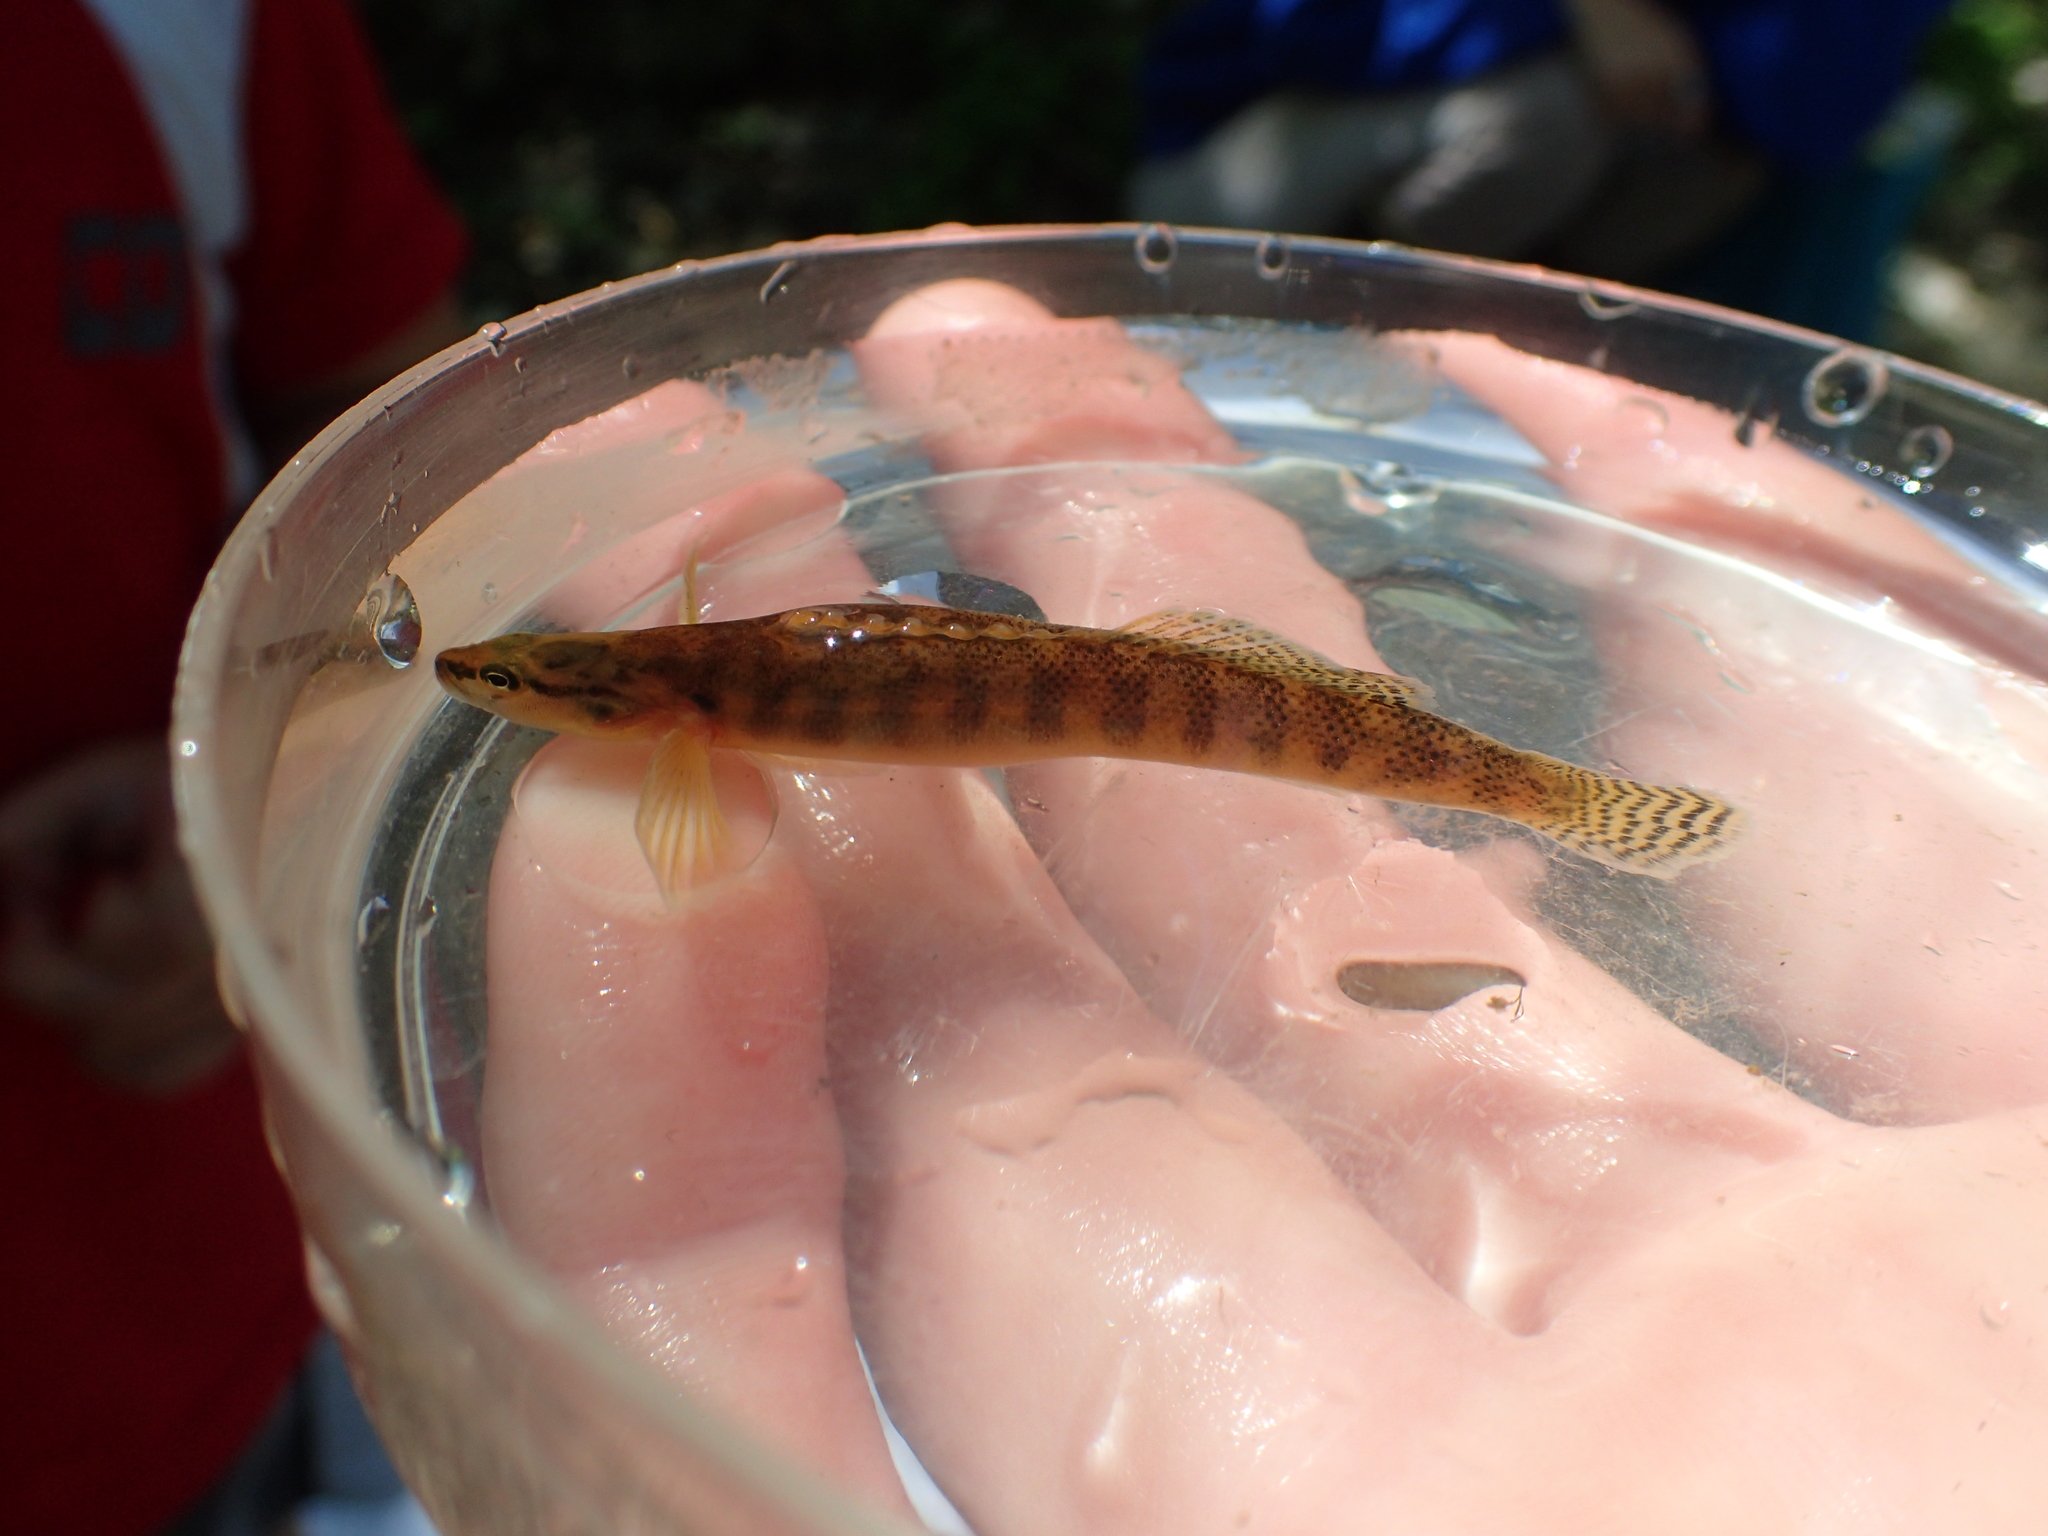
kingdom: Animalia
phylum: Chordata
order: Perciformes
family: Percidae
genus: Etheostoma
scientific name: Etheostoma flabellare
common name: Fantail darter
